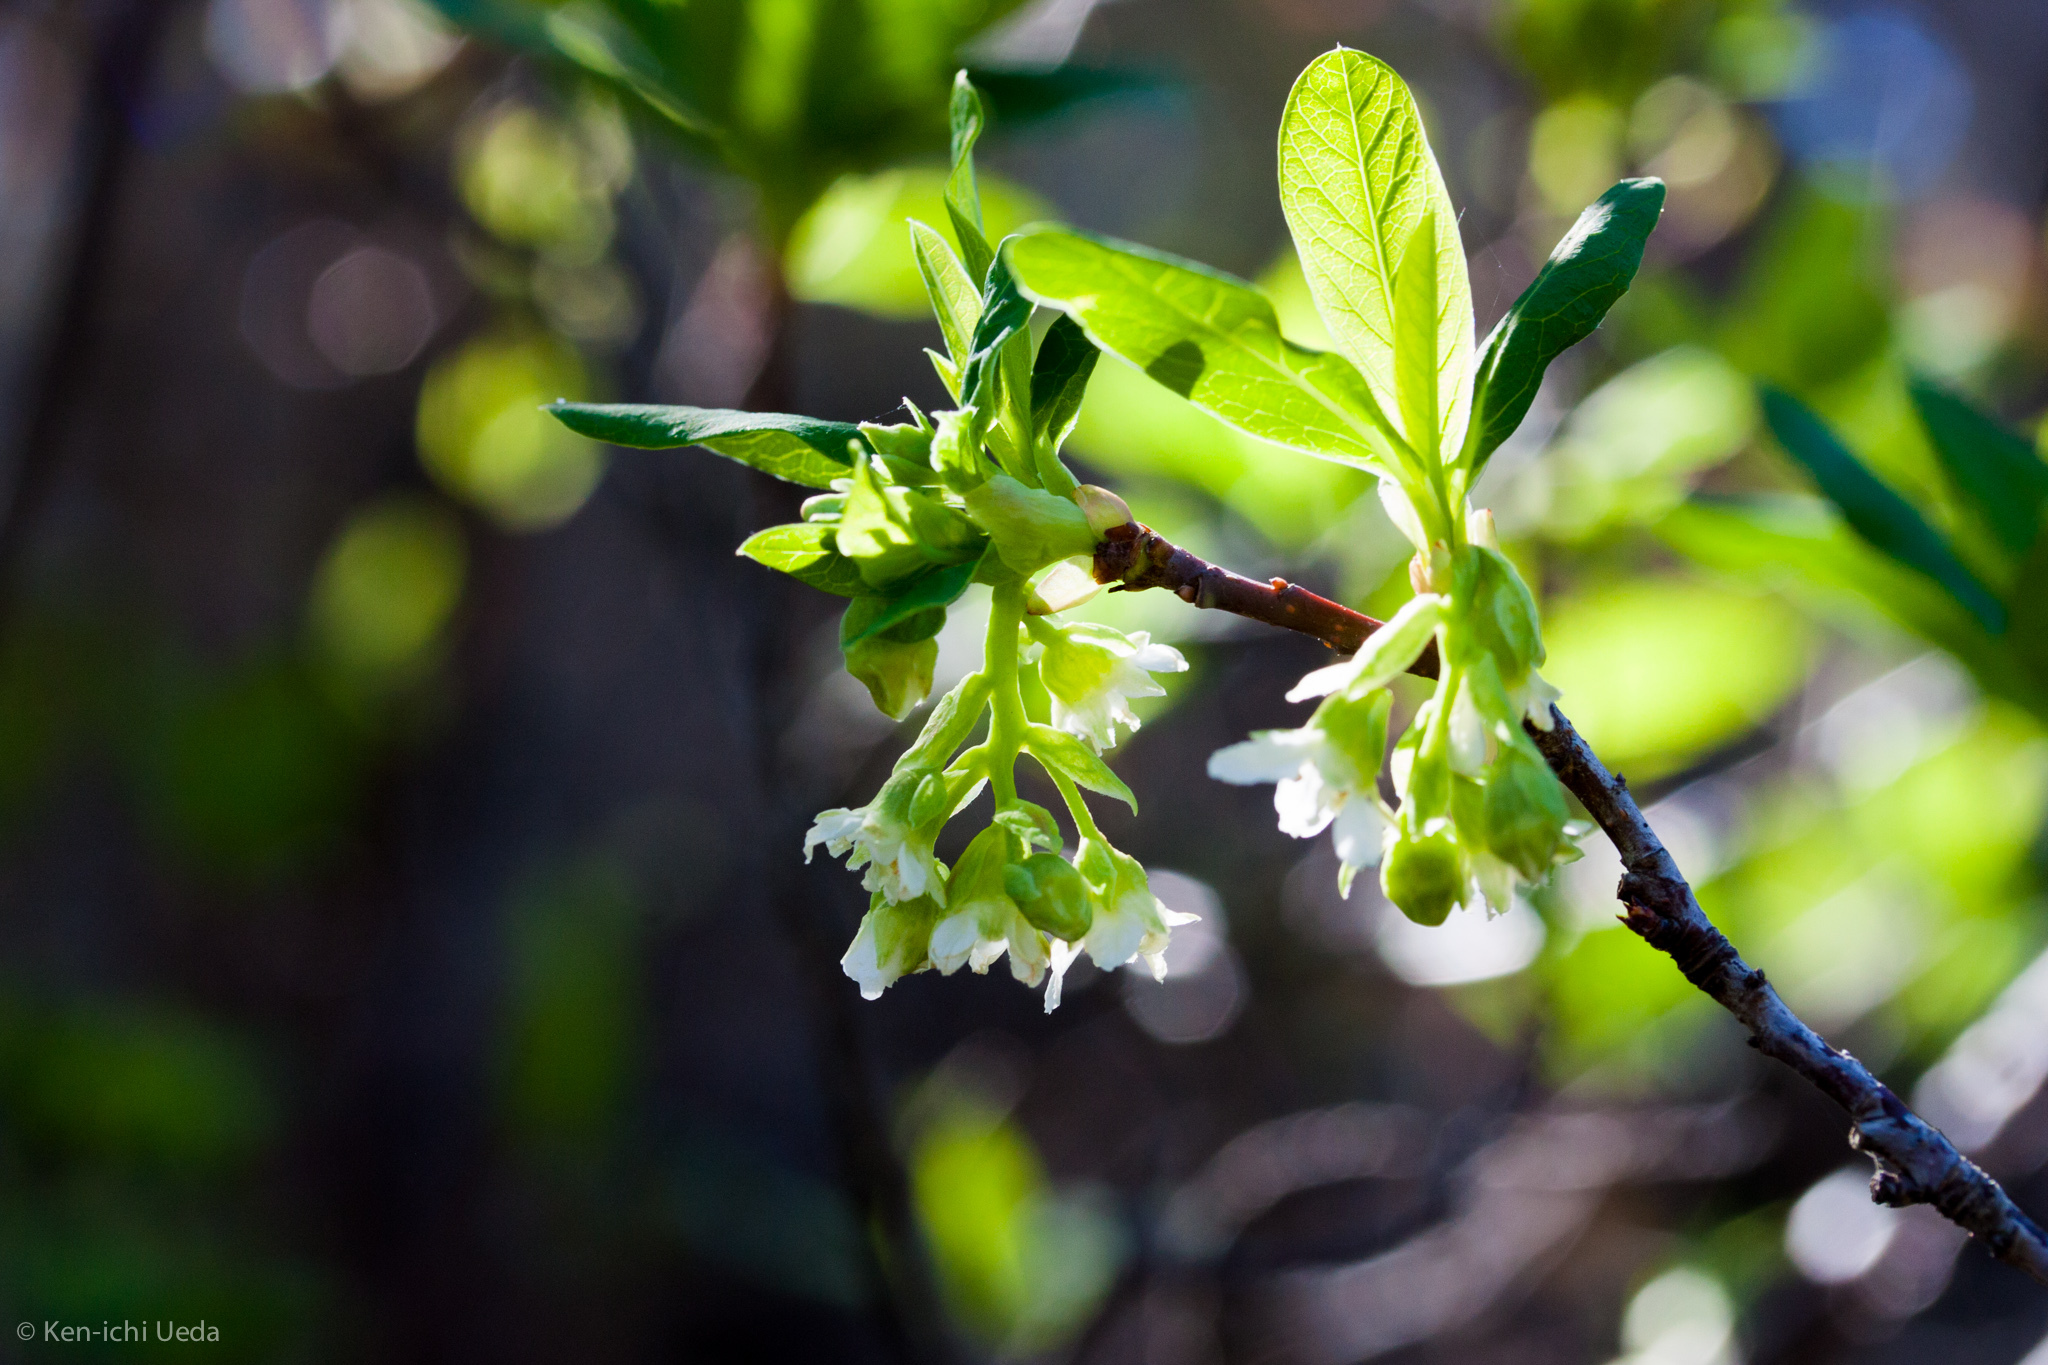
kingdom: Plantae
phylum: Tracheophyta
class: Magnoliopsida
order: Rosales
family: Rosaceae
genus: Oemleria
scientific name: Oemleria cerasiformis
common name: Osoberry
